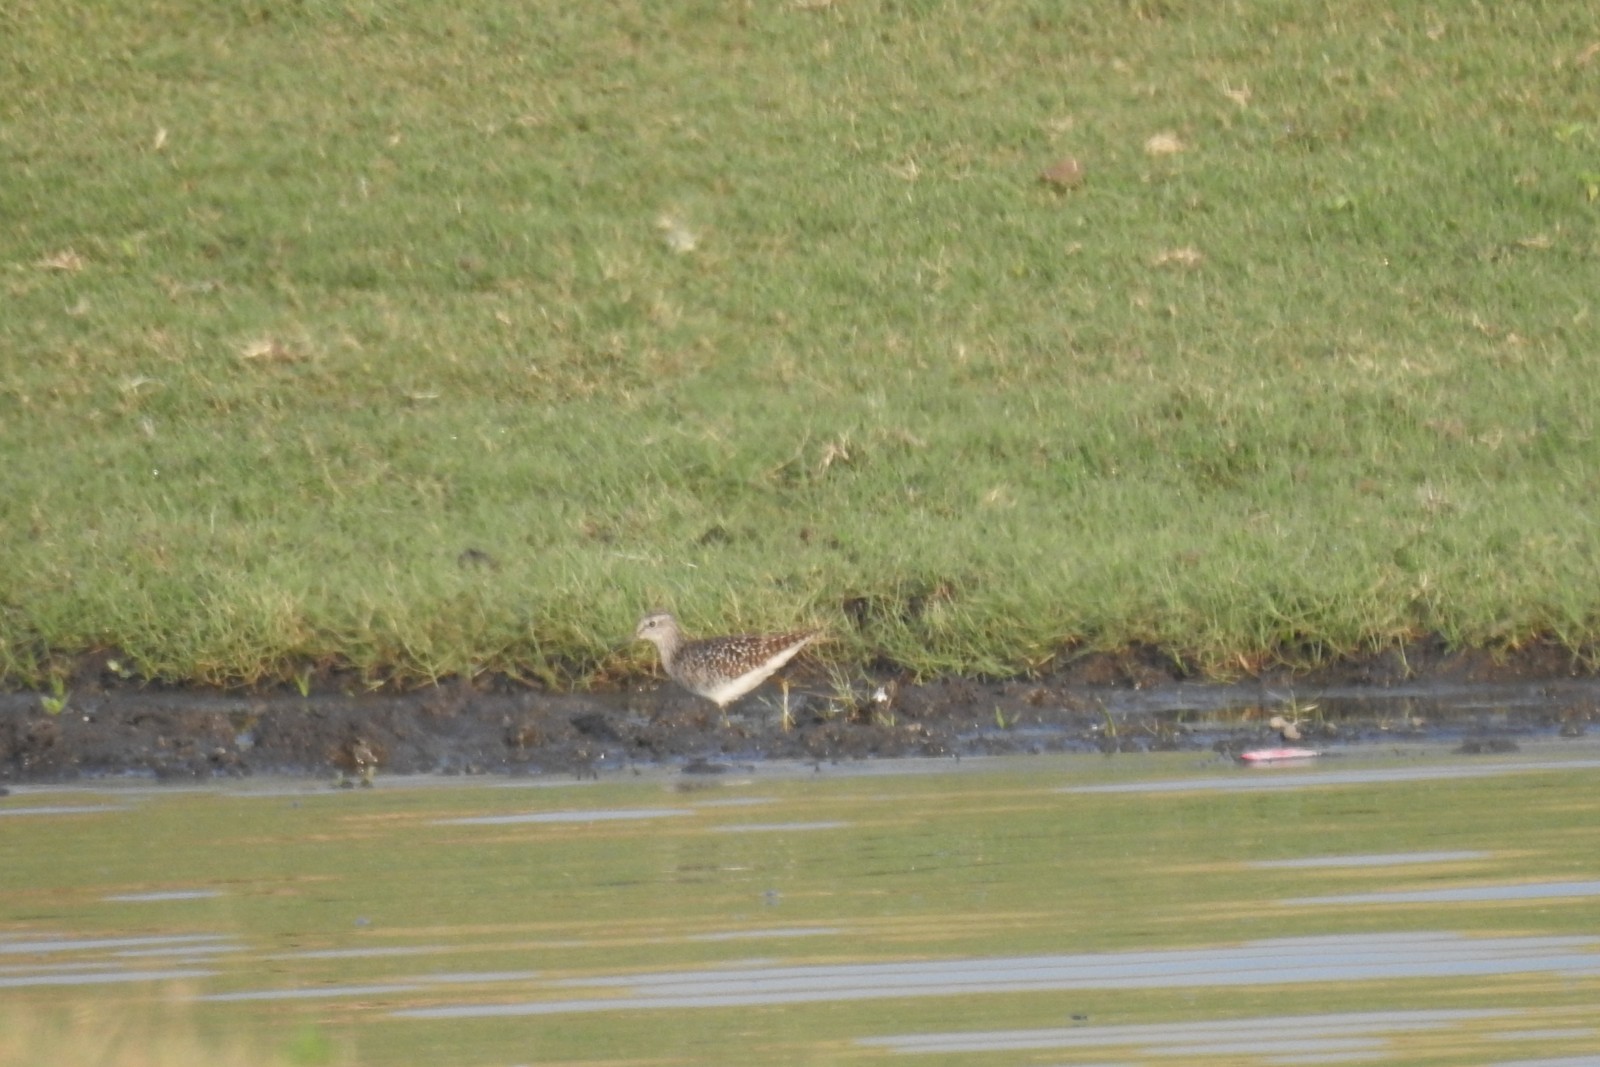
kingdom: Animalia
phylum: Chordata
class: Aves
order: Charadriiformes
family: Scolopacidae
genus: Tringa
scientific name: Tringa glareola
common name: Wood sandpiper
